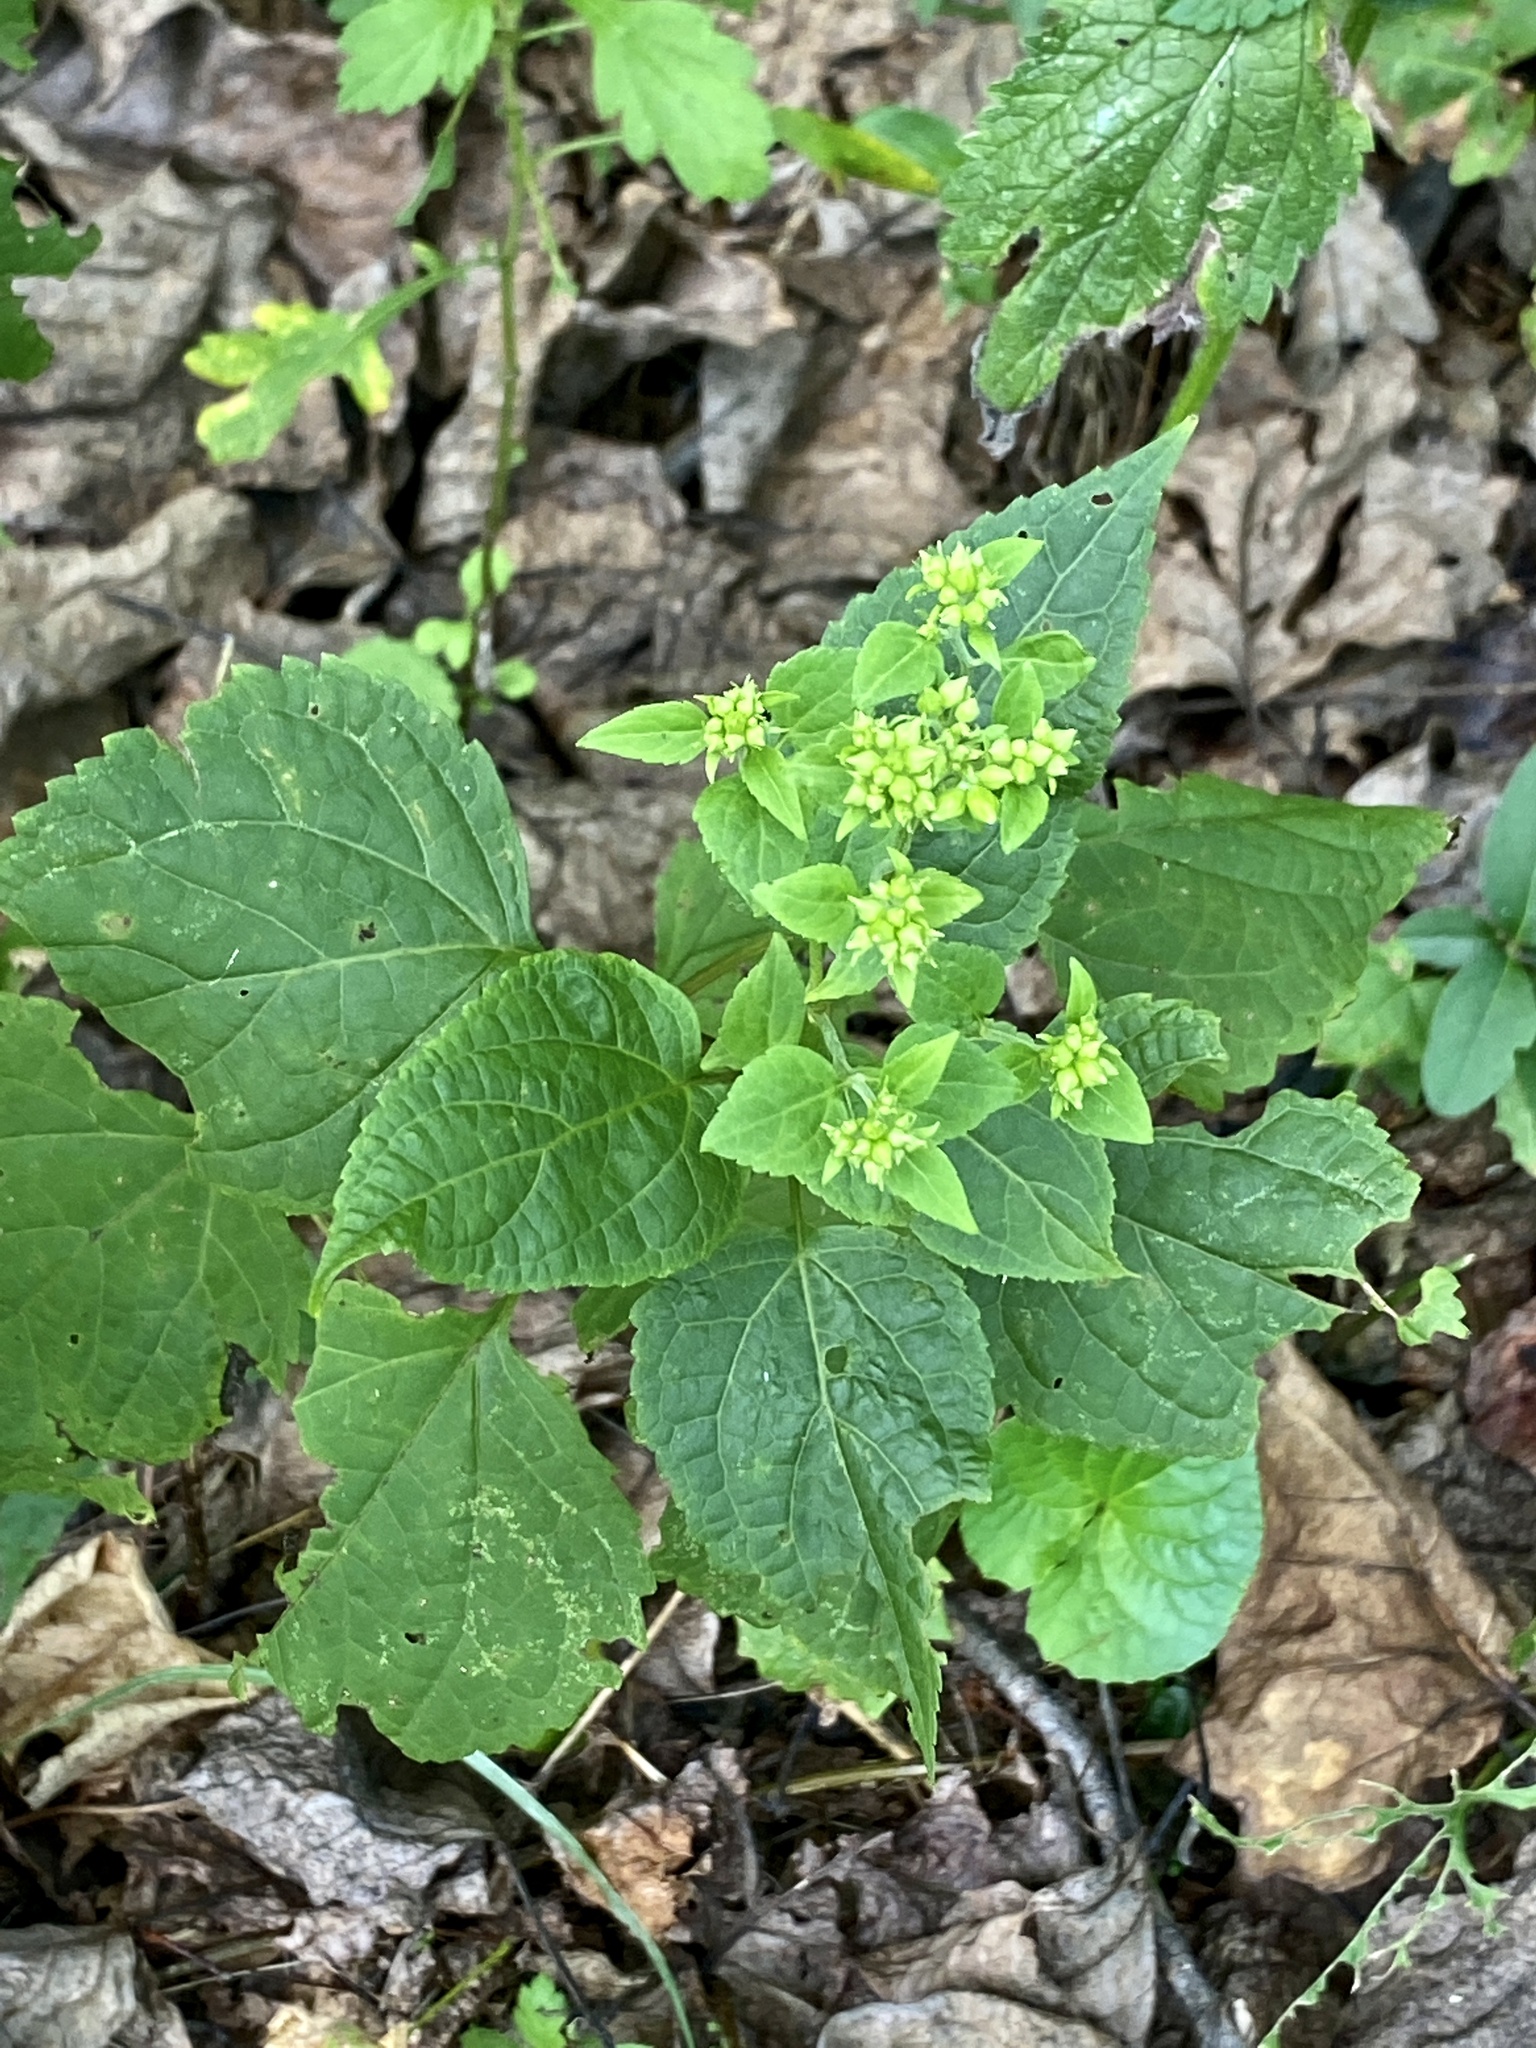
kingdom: Plantae
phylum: Tracheophyta
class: Magnoliopsida
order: Asterales
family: Asteraceae
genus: Ageratina
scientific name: Ageratina altissima
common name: White snakeroot
